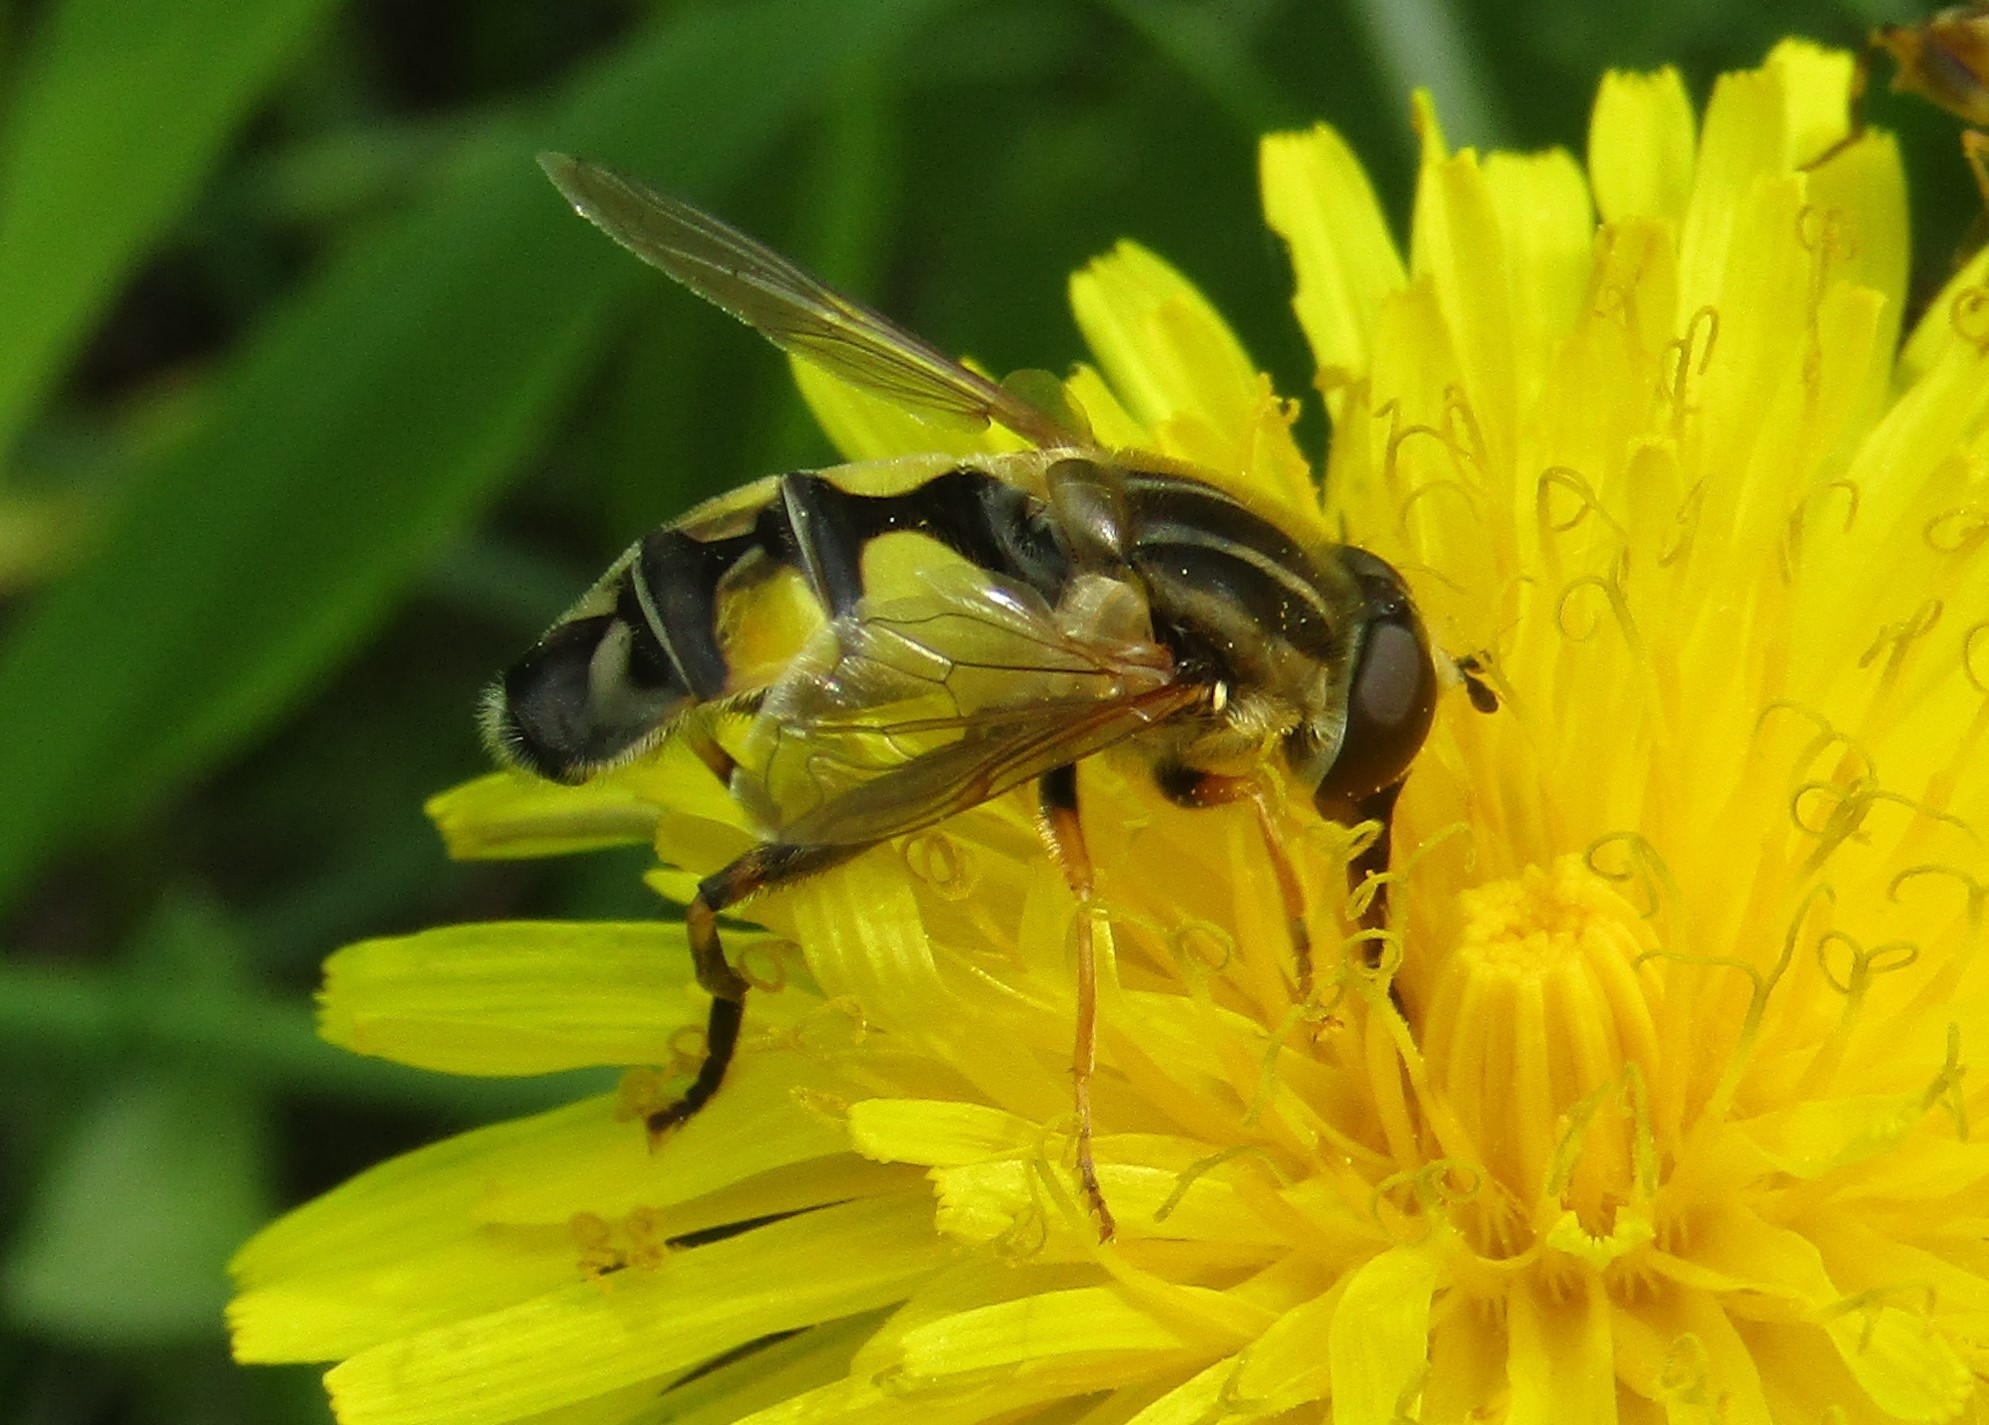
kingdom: Animalia
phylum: Arthropoda
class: Insecta
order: Diptera
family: Syrphidae
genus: Helophilus
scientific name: Helophilus trivittatus
